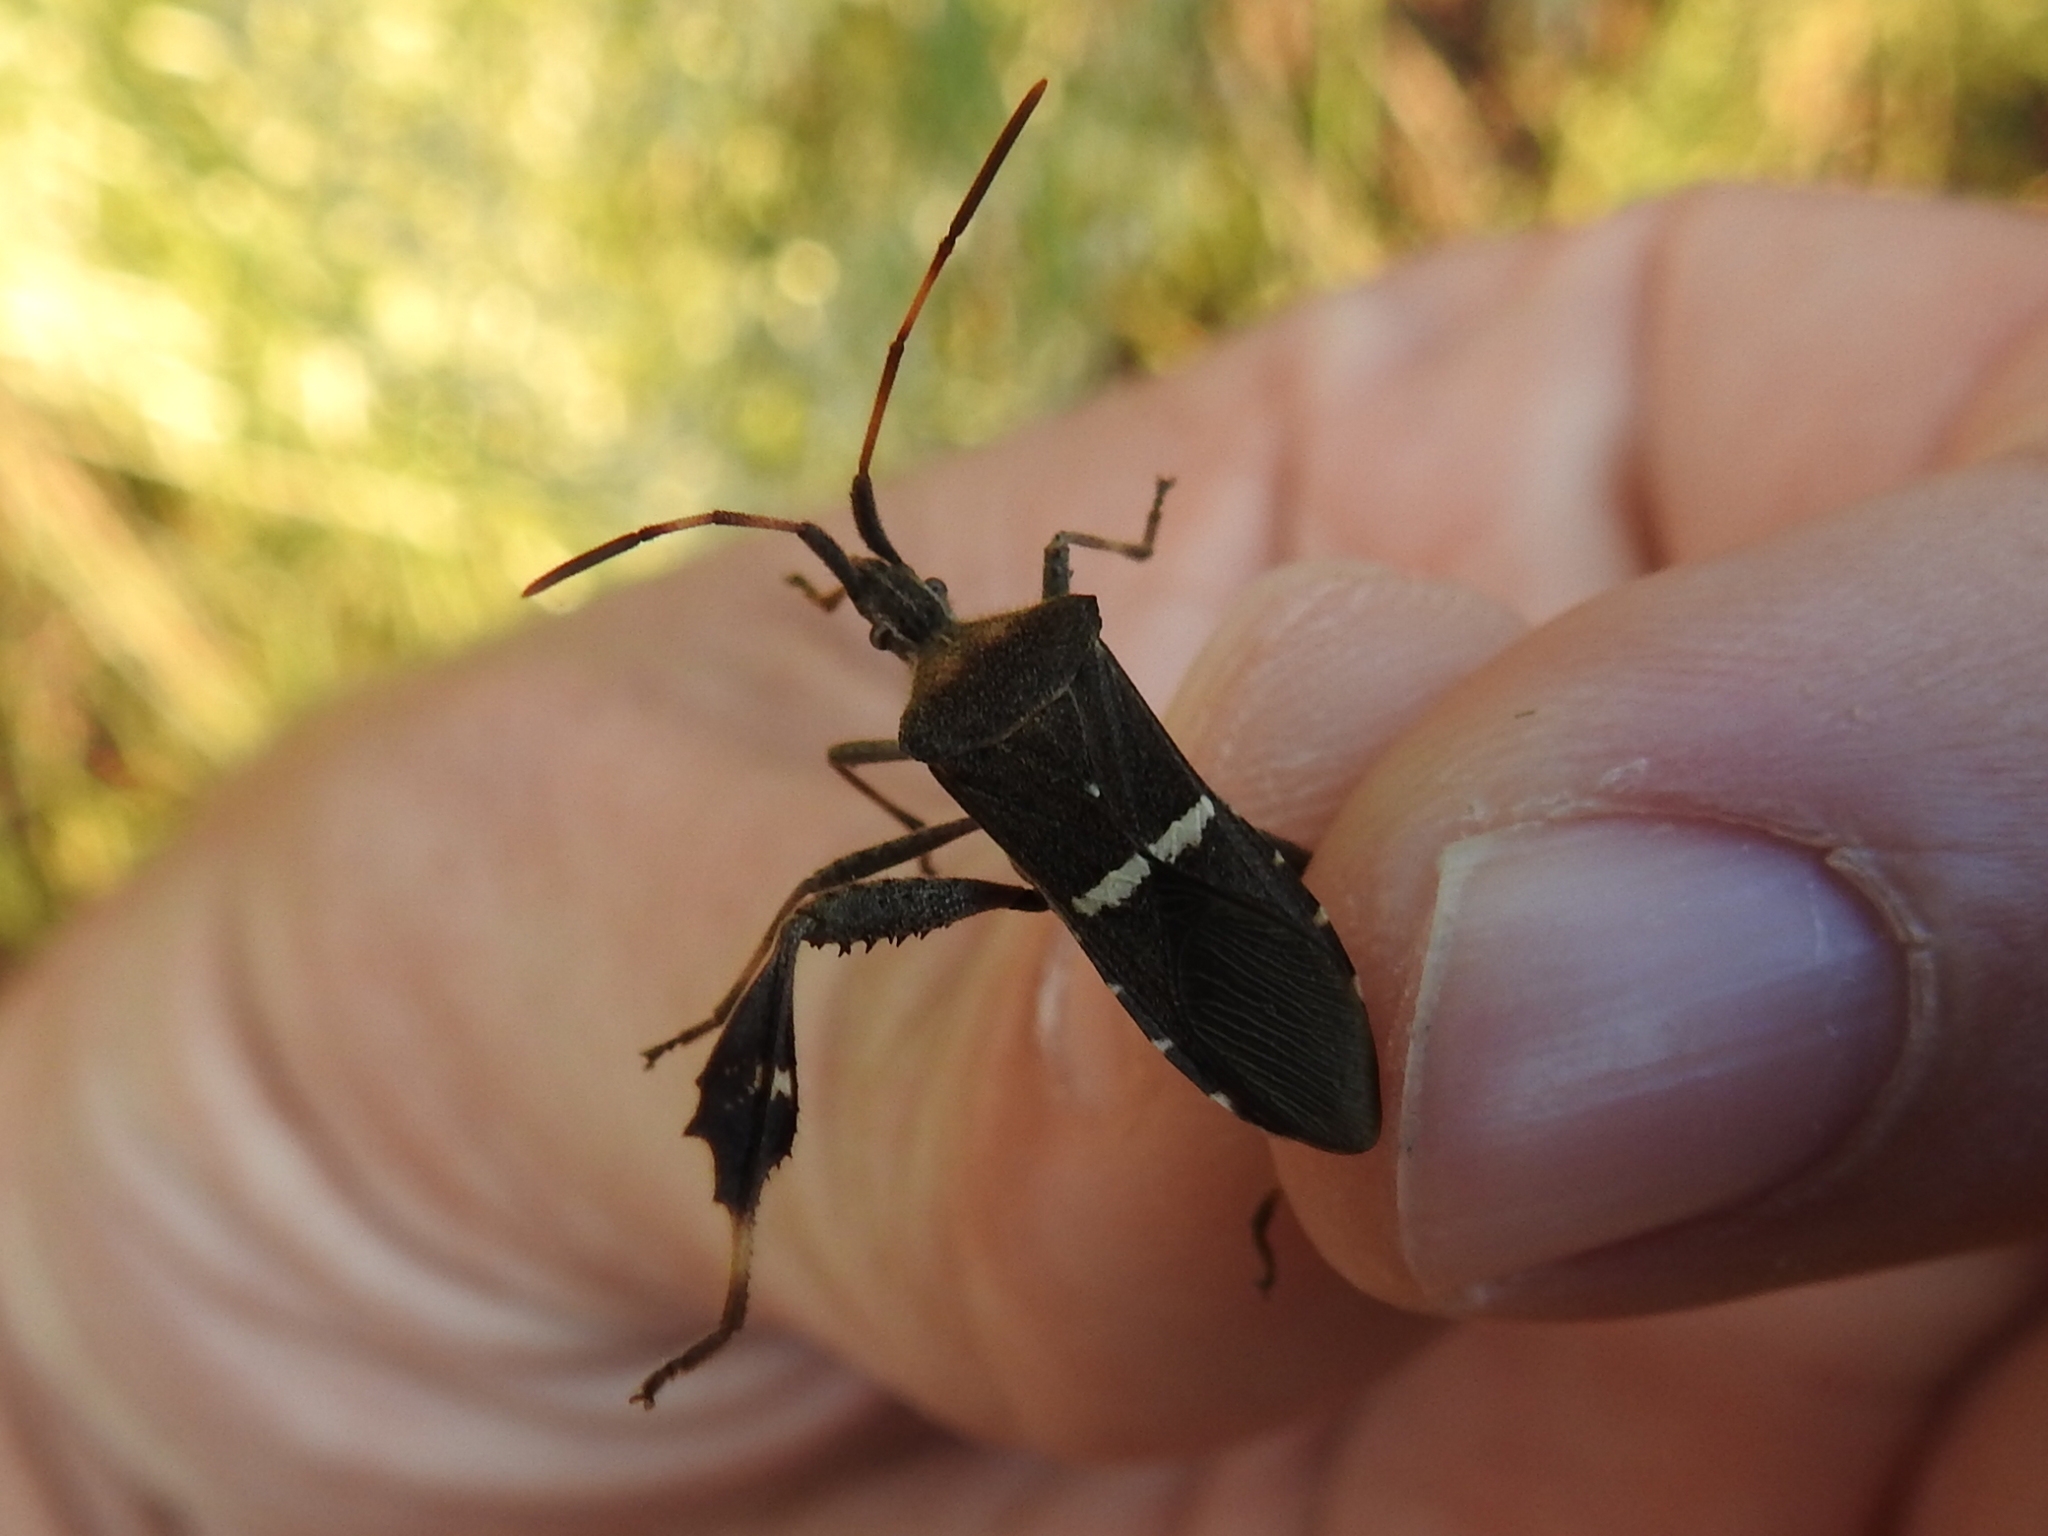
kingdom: Animalia
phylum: Arthropoda
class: Insecta
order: Hemiptera
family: Coreidae
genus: Leptoglossus
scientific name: Leptoglossus phyllopus
